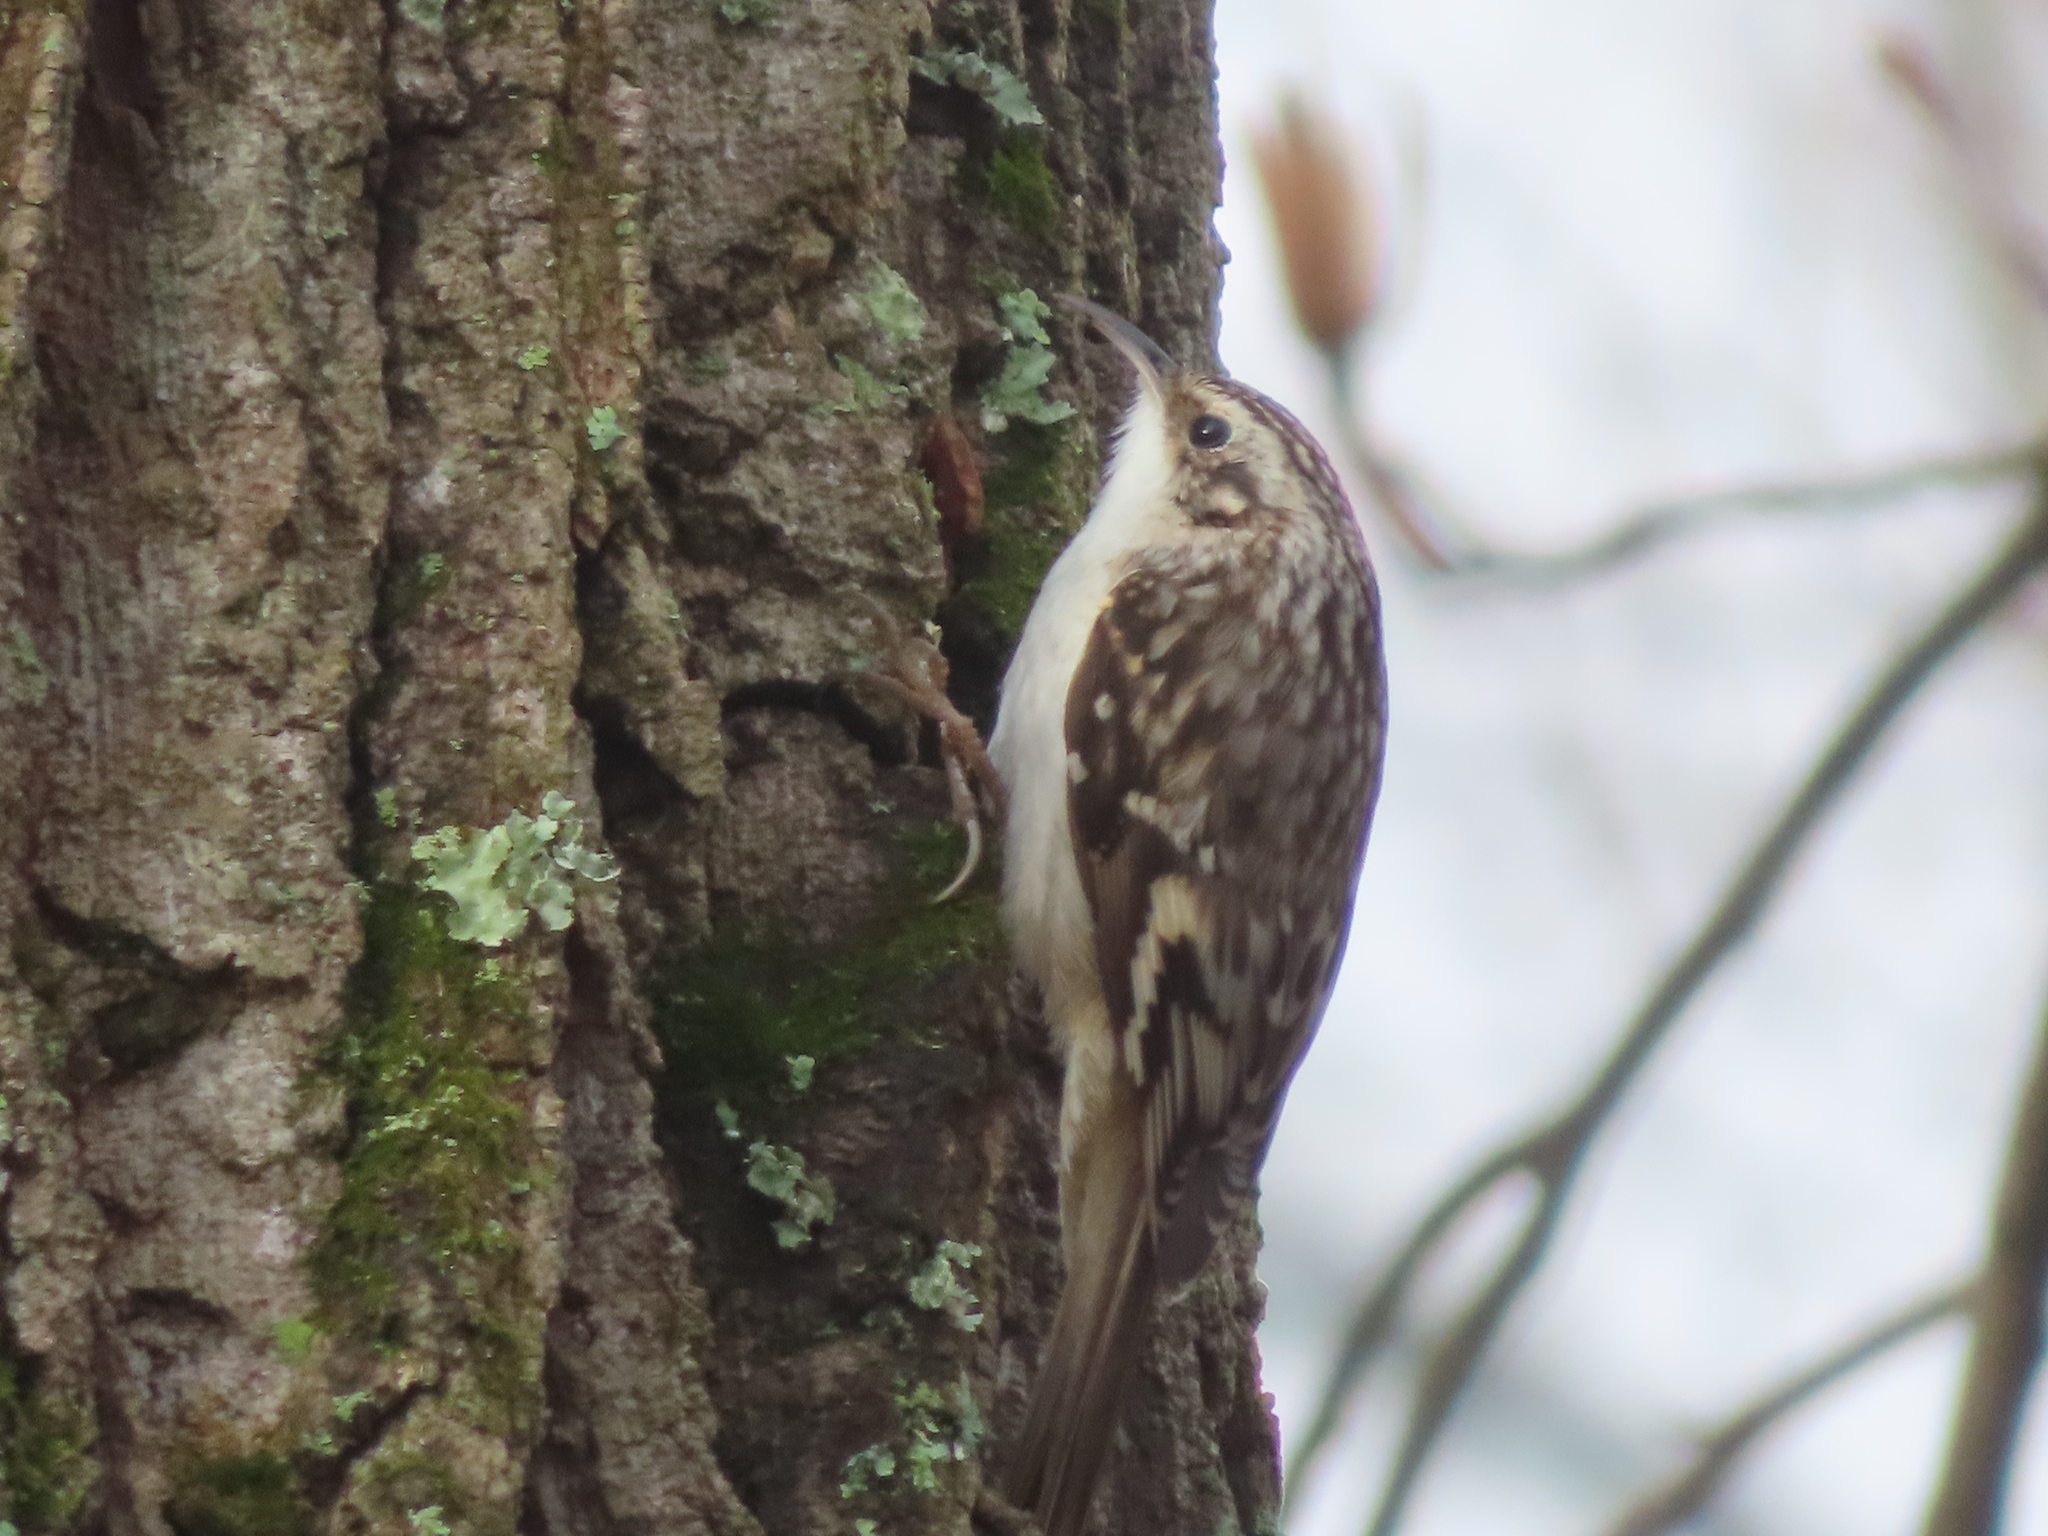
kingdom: Animalia
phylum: Chordata
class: Aves
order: Passeriformes
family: Certhiidae
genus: Certhia
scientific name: Certhia americana
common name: Brown creeper
